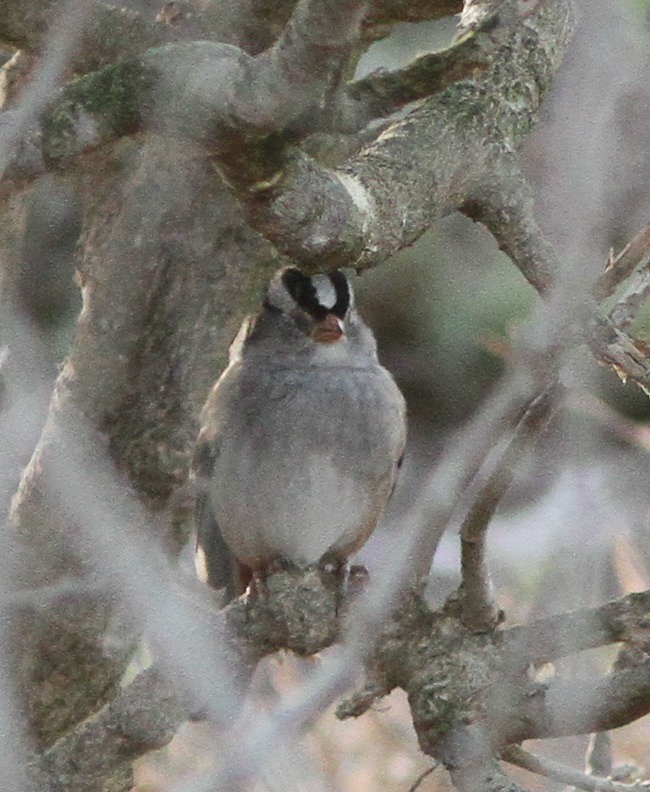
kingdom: Animalia
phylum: Chordata
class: Aves
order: Passeriformes
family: Passerellidae
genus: Zonotrichia
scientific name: Zonotrichia leucophrys
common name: White-crowned sparrow
